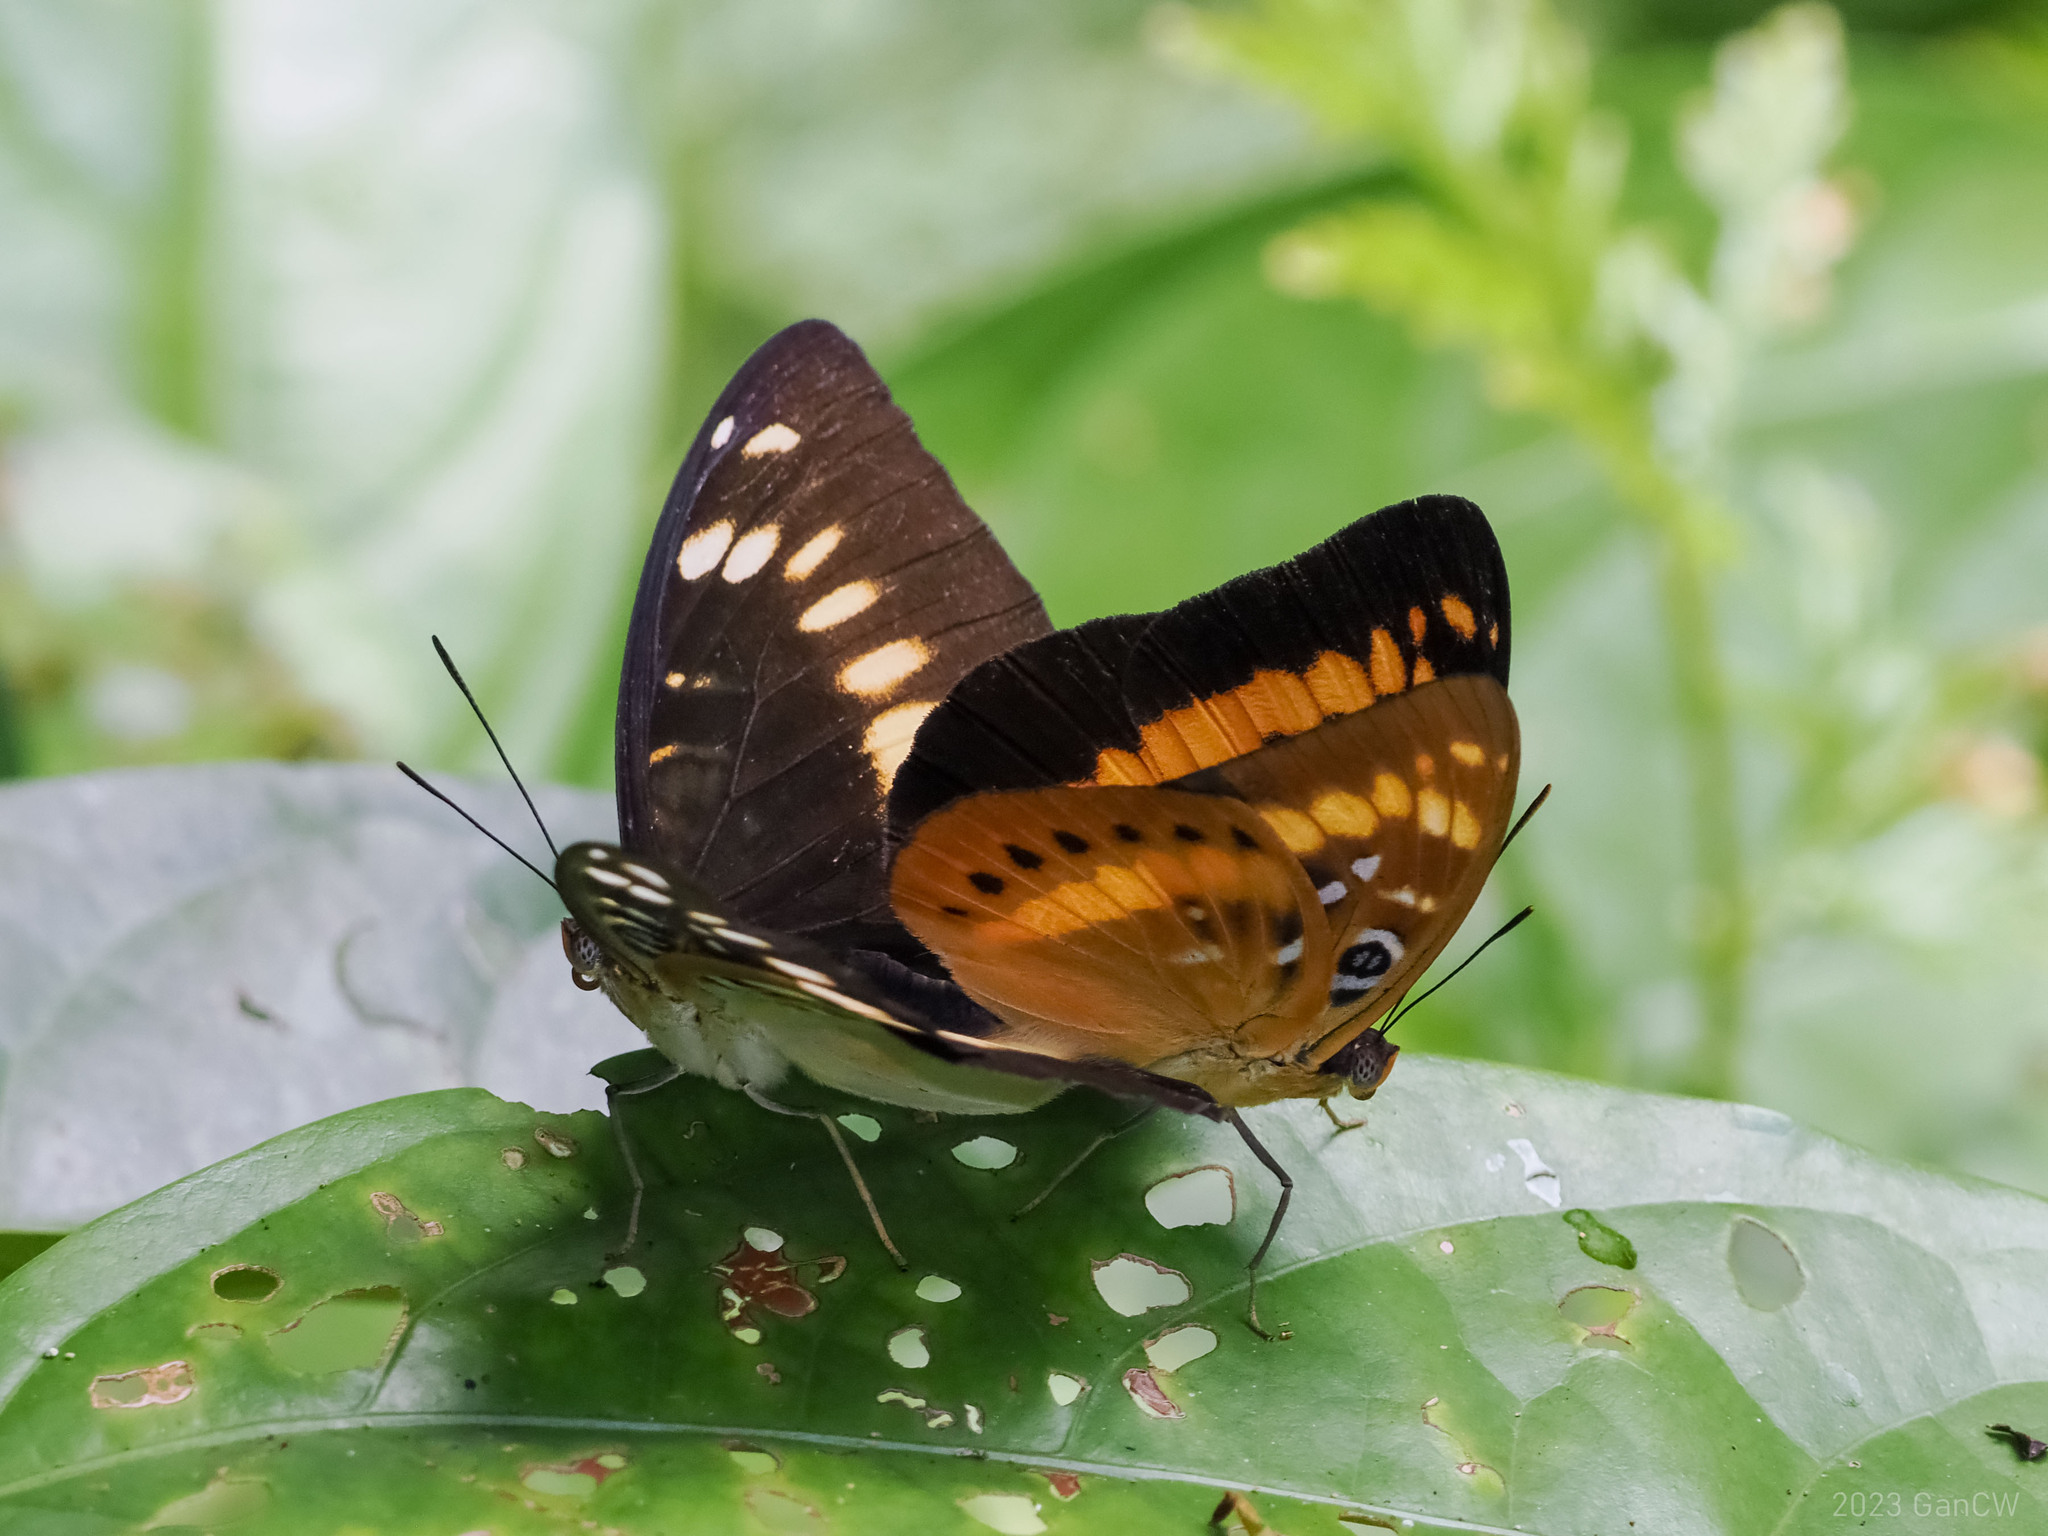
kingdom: Animalia
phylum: Arthropoda
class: Insecta
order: Lepidoptera
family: Nymphalidae
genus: Lexias
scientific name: Lexias aeropa
